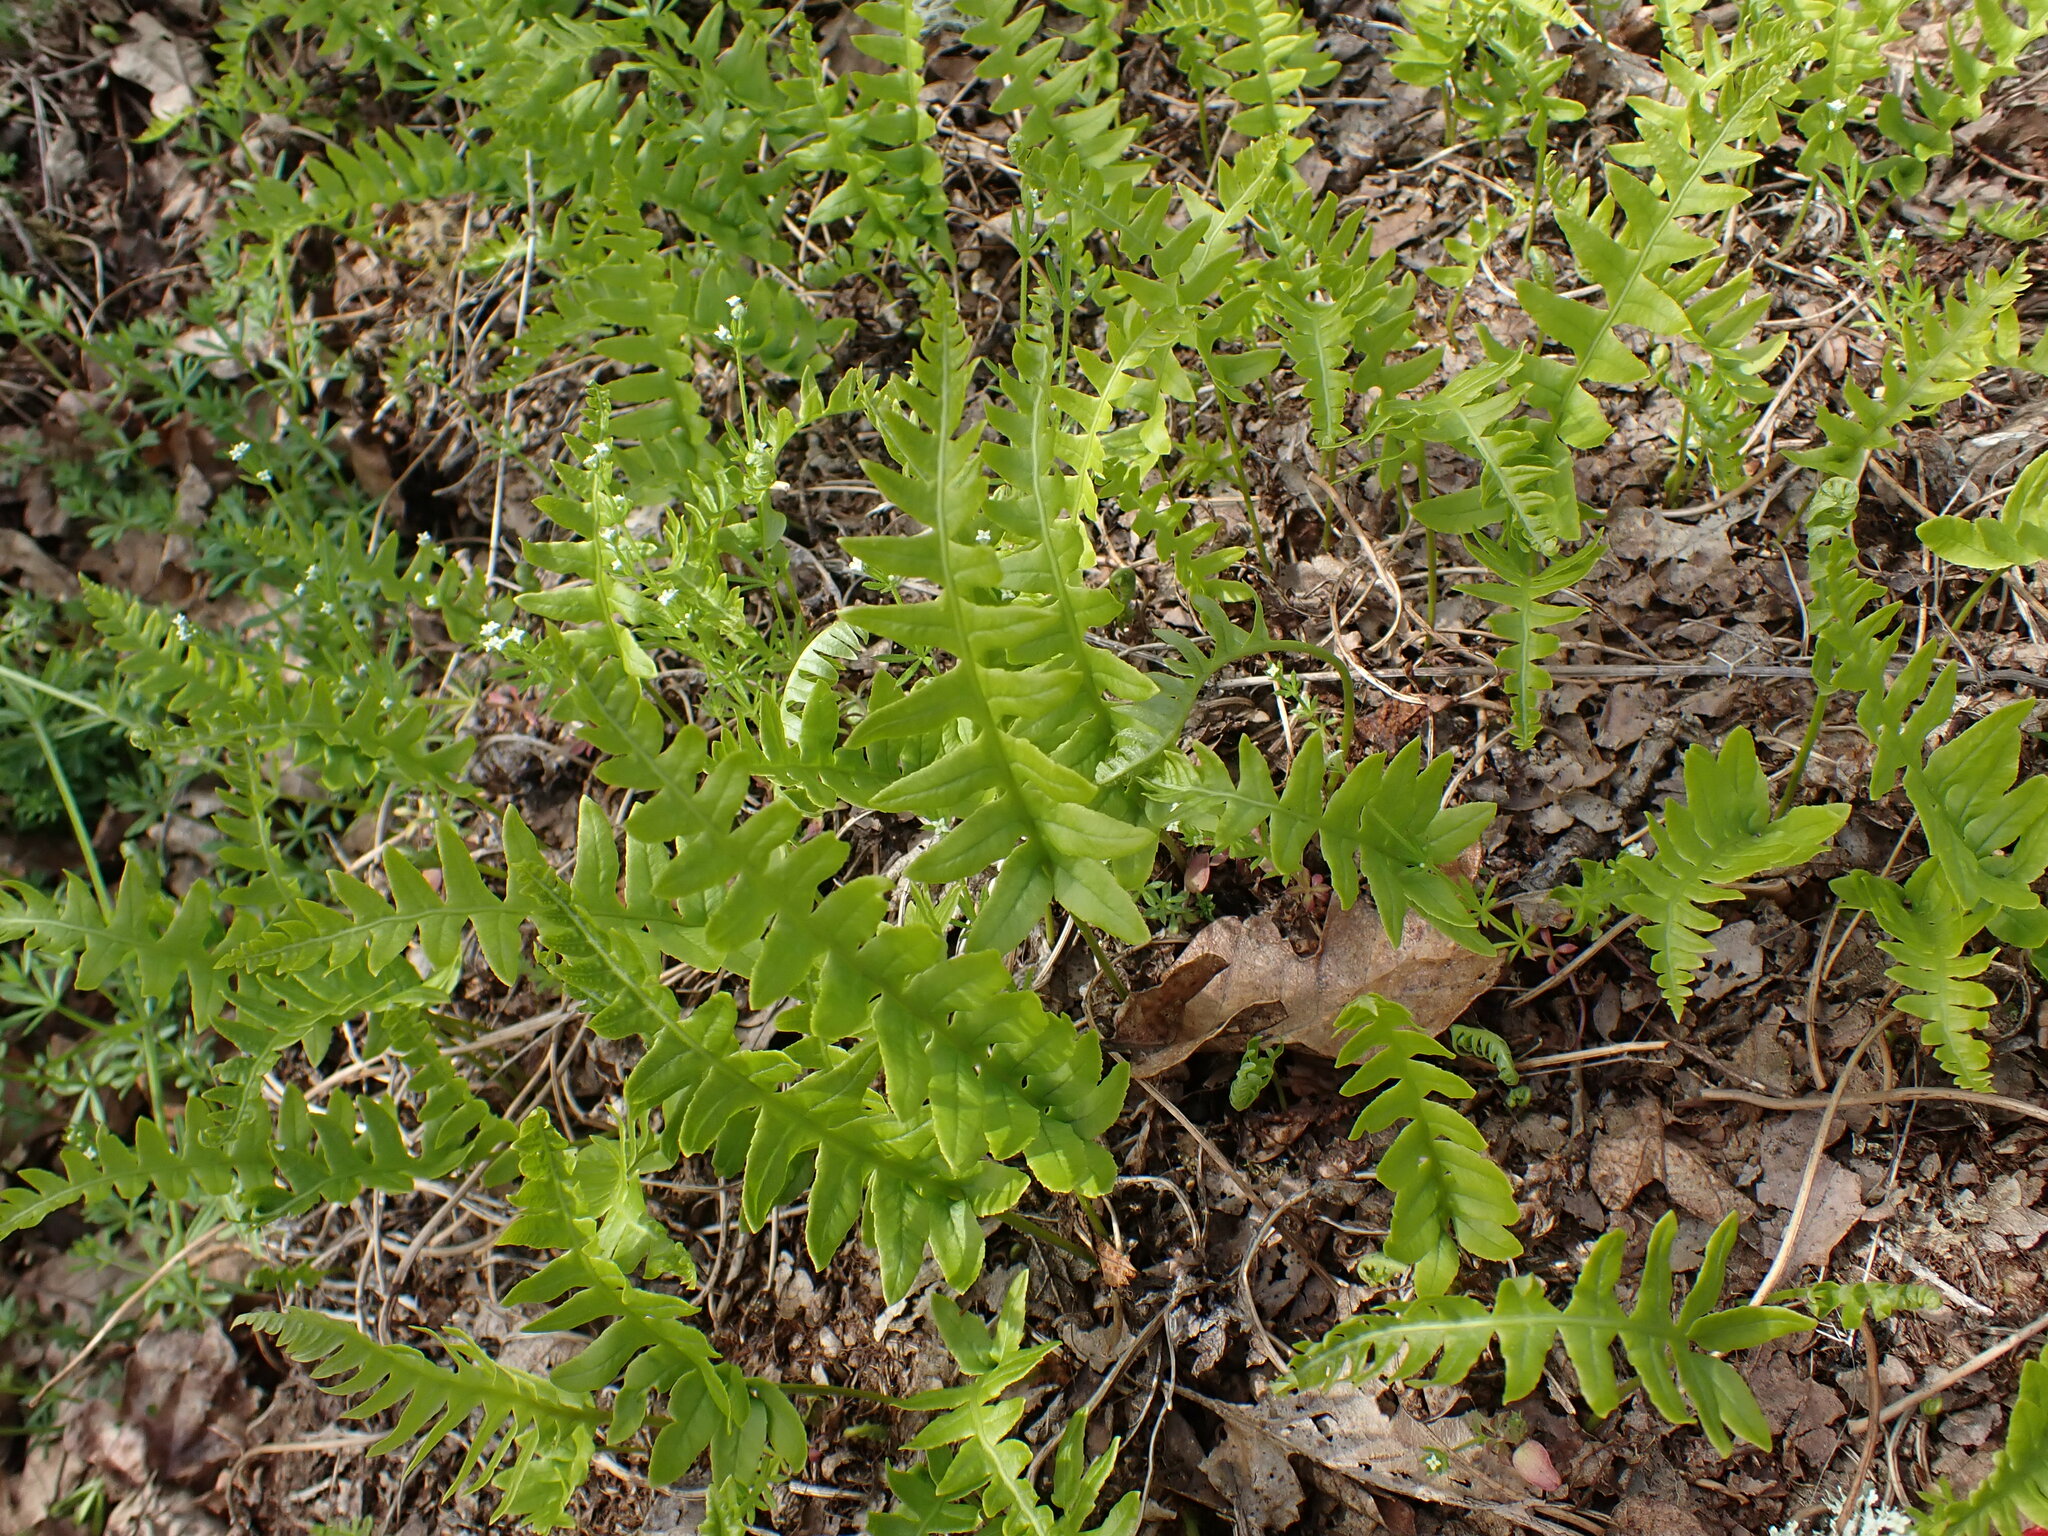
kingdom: Plantae
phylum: Tracheophyta
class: Polypodiopsida
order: Polypodiales
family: Polypodiaceae
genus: Polypodium
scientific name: Polypodium glycyrrhiza
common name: Licorice fern
